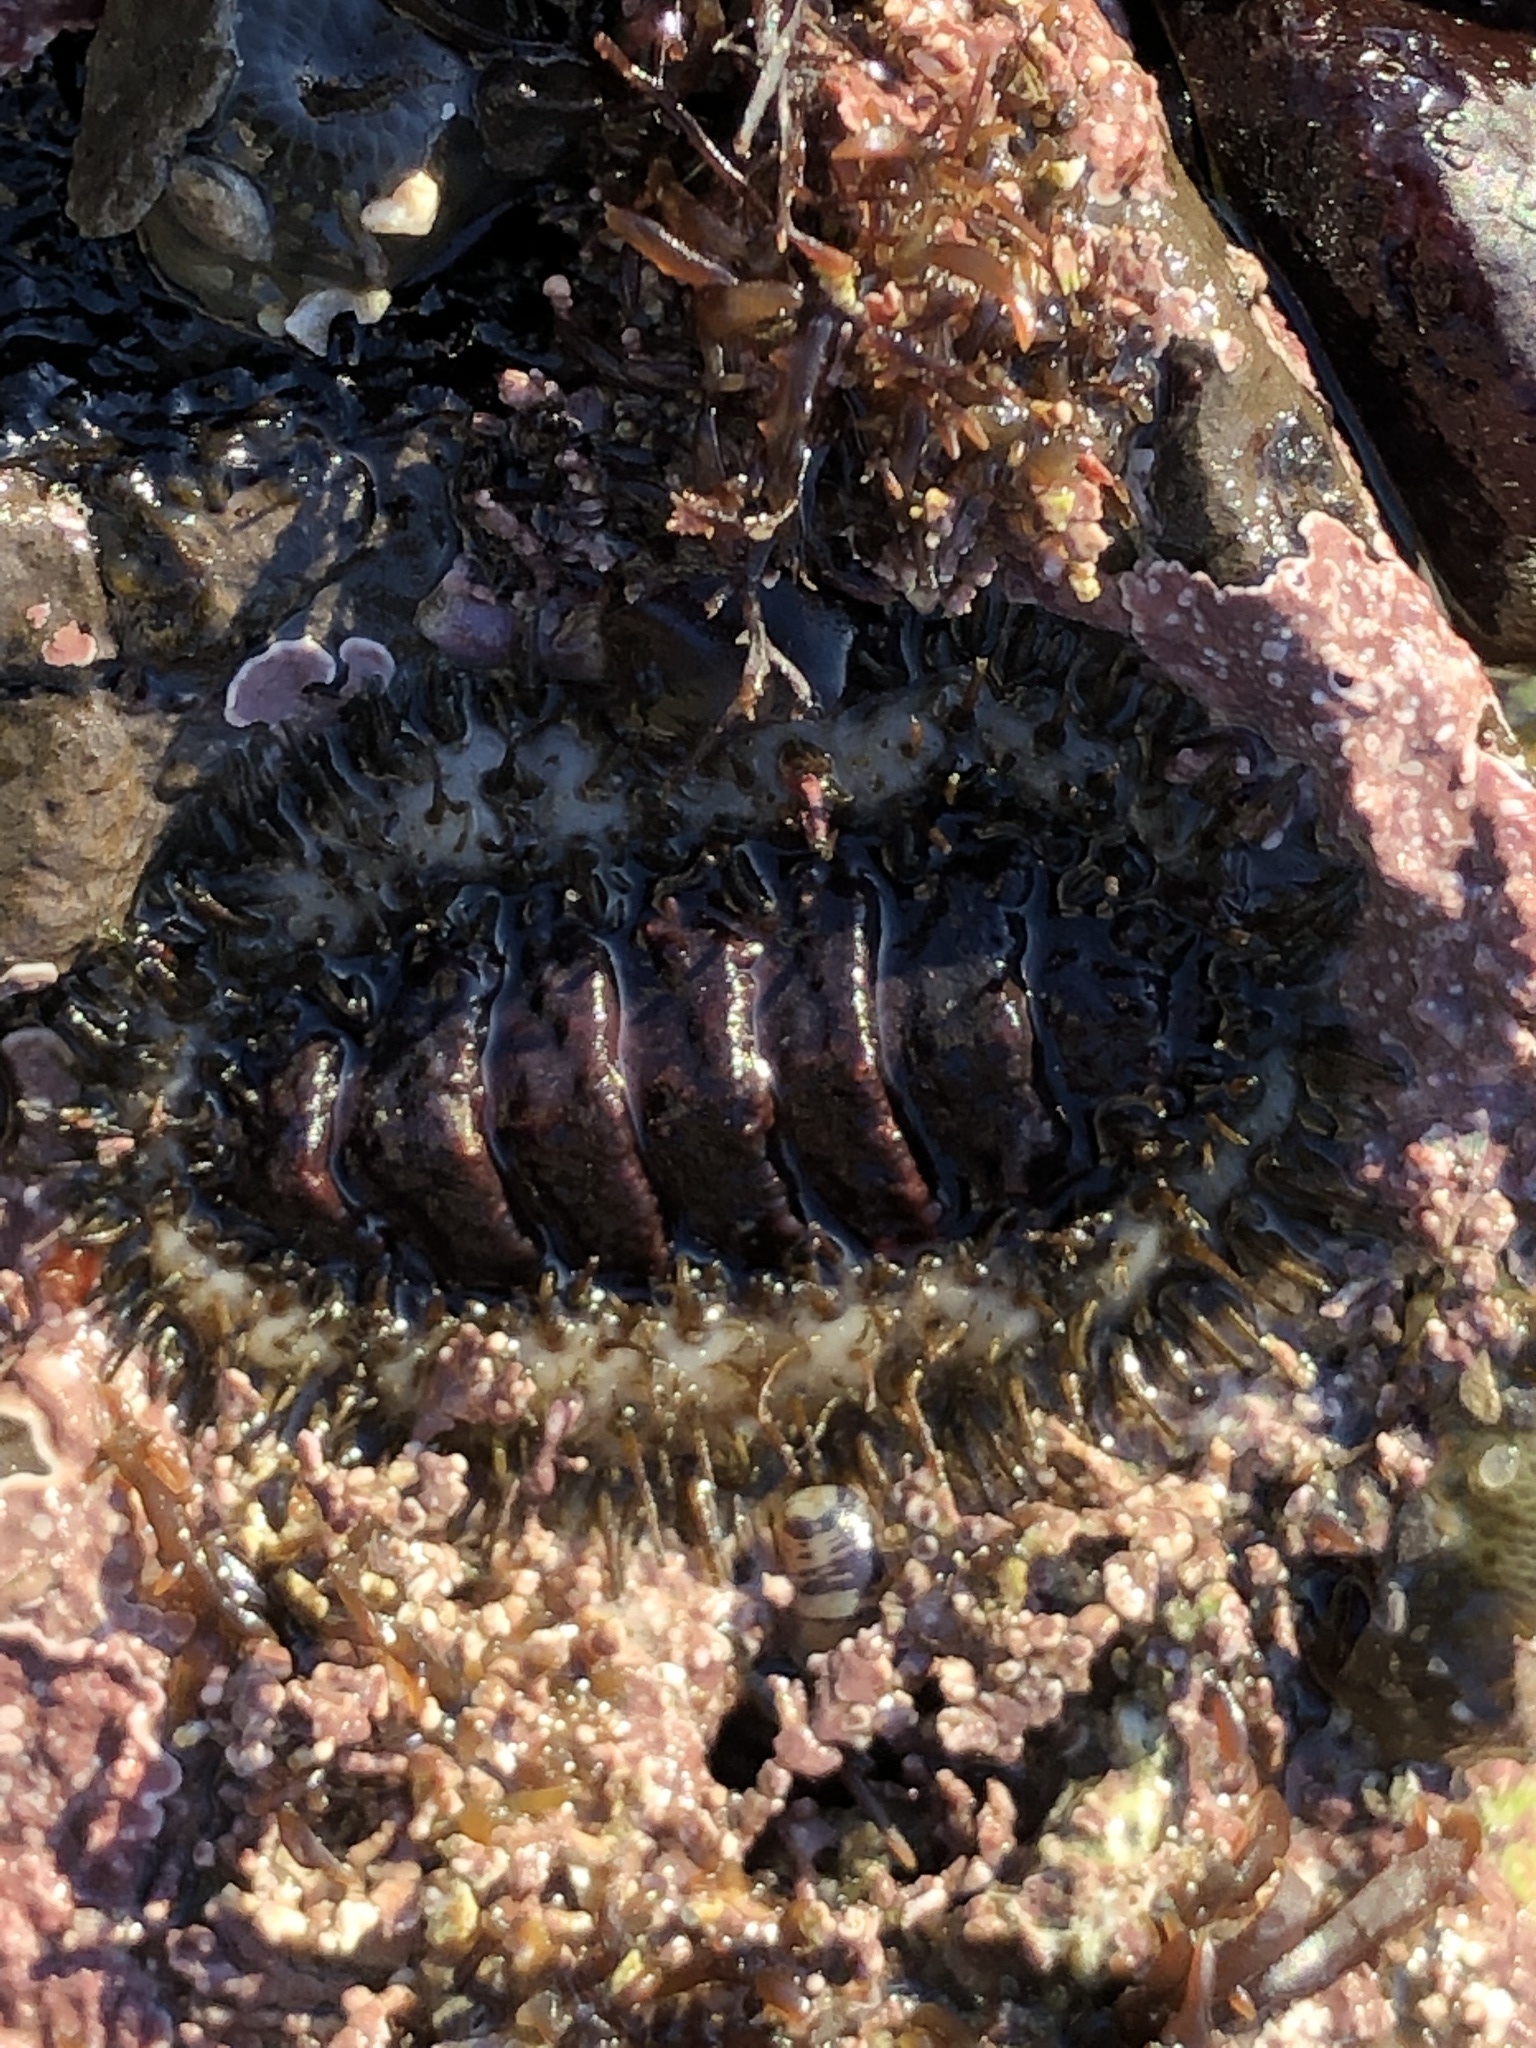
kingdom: Animalia
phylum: Mollusca
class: Polyplacophora
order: Chitonida
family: Mopaliidae
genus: Mopalia
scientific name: Mopalia ciliata
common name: Hairy chiton
